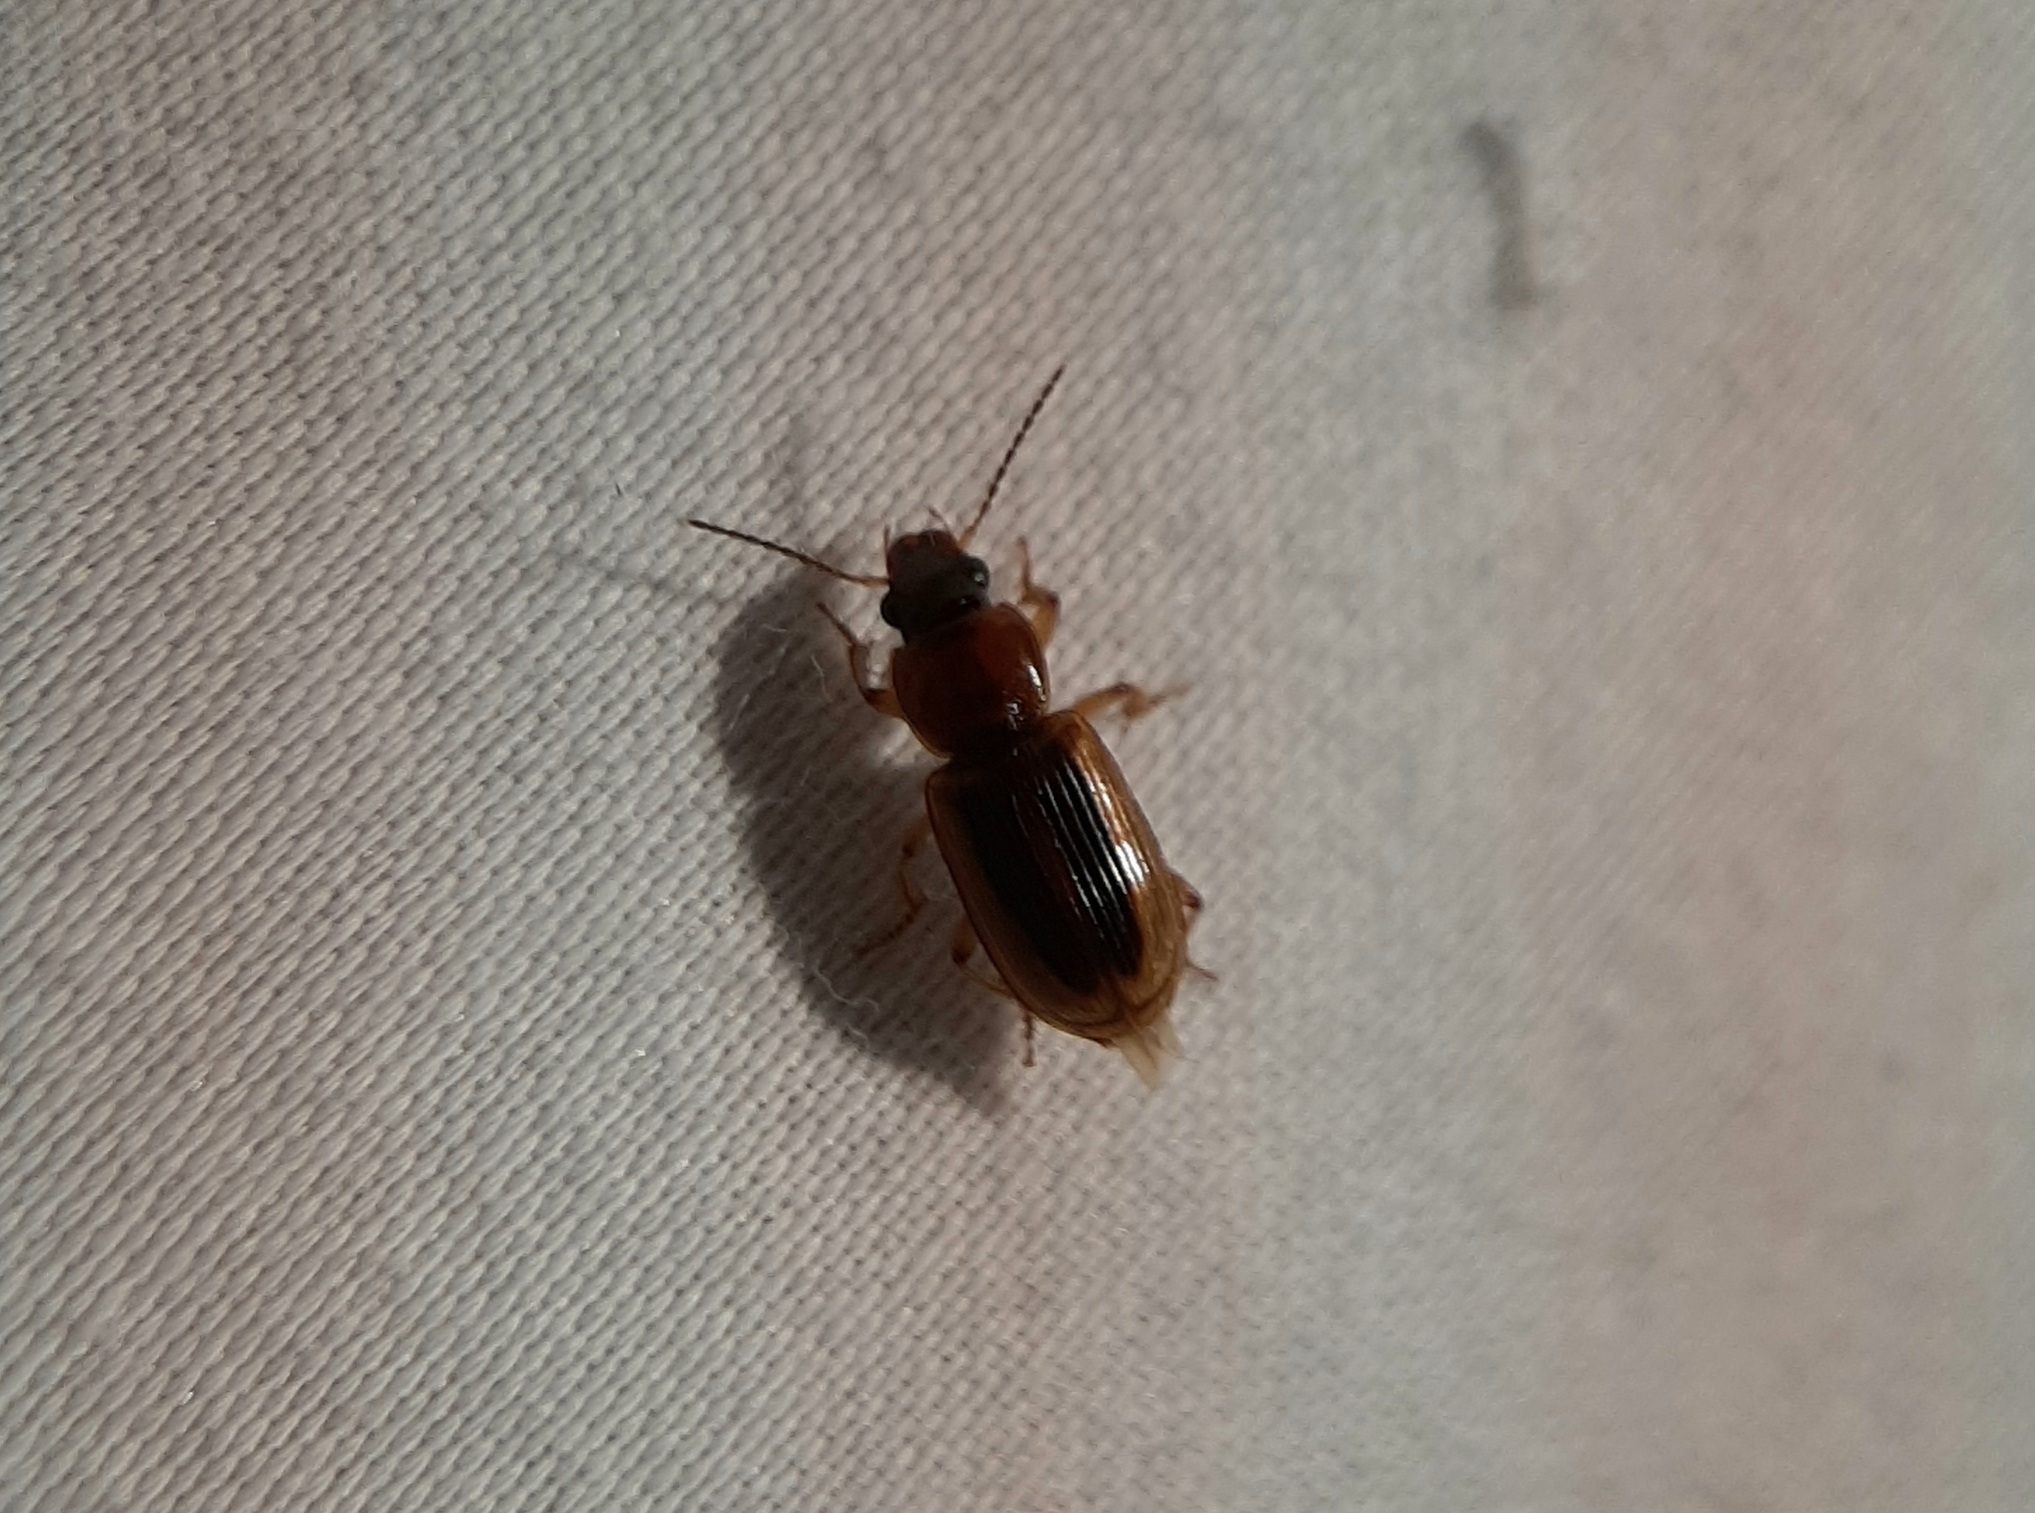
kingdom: Animalia
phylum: Arthropoda
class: Insecta
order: Coleoptera
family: Carabidae
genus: Stenolophus
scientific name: Stenolophus lecontei
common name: Leconte's seedcorn beetle
